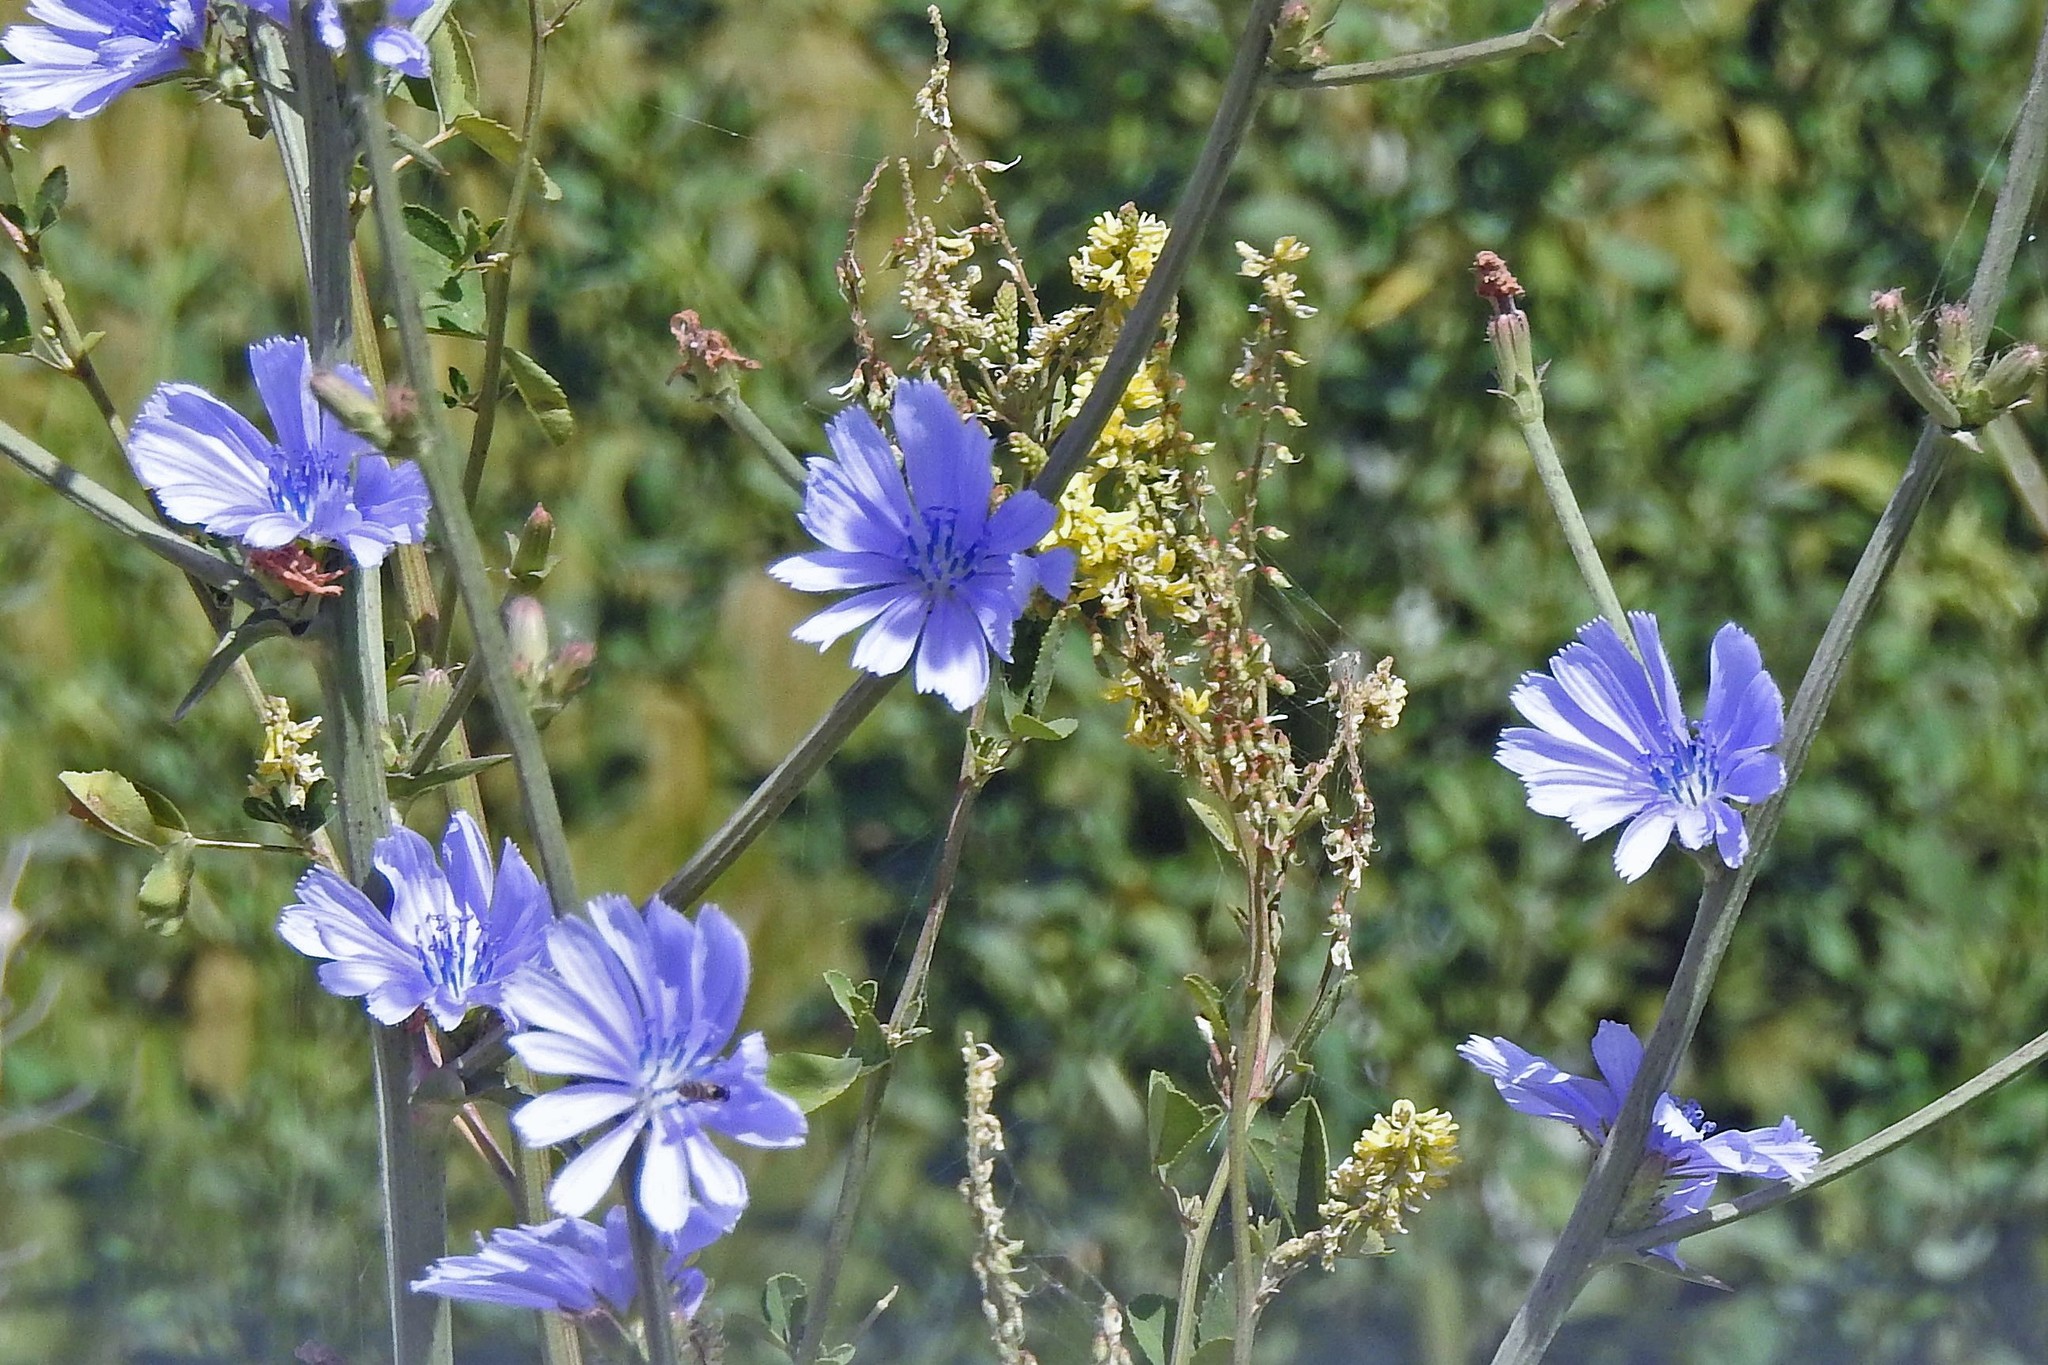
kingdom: Plantae
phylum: Tracheophyta
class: Magnoliopsida
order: Asterales
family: Asteraceae
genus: Cichorium
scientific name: Cichorium intybus
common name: Chicory
